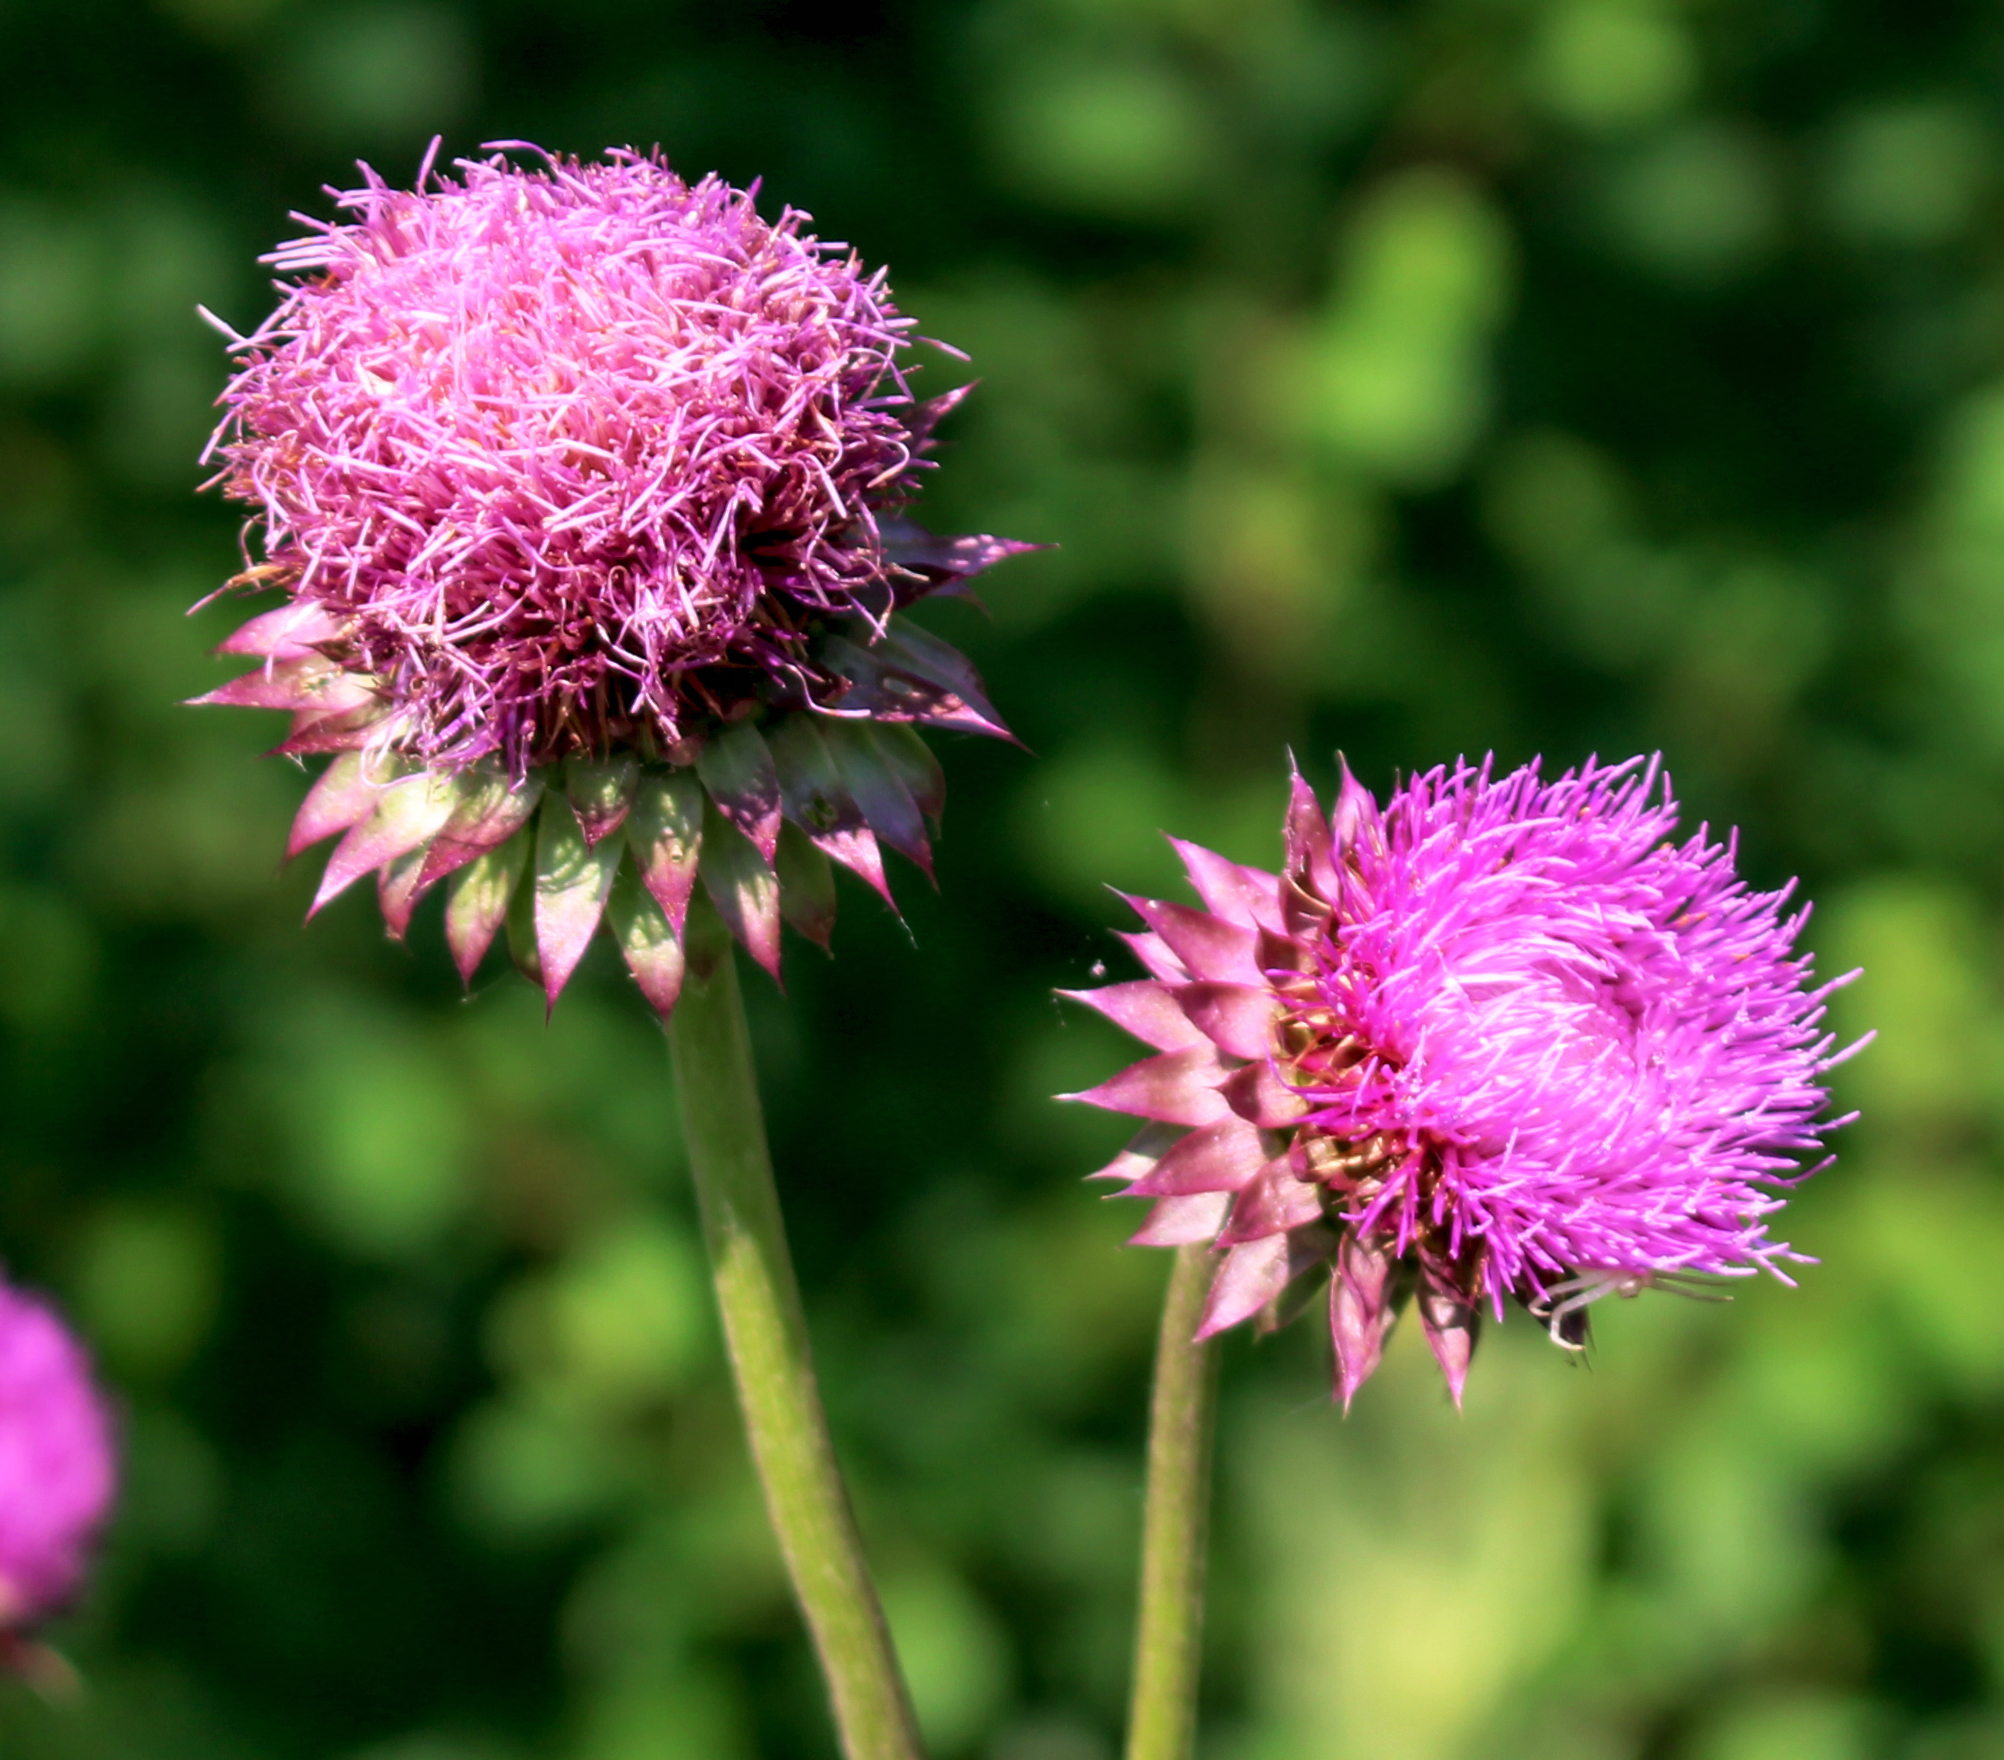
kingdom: Plantae
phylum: Tracheophyta
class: Magnoliopsida
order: Asterales
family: Asteraceae
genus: Carduus
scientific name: Carduus nutans
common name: Musk thistle
